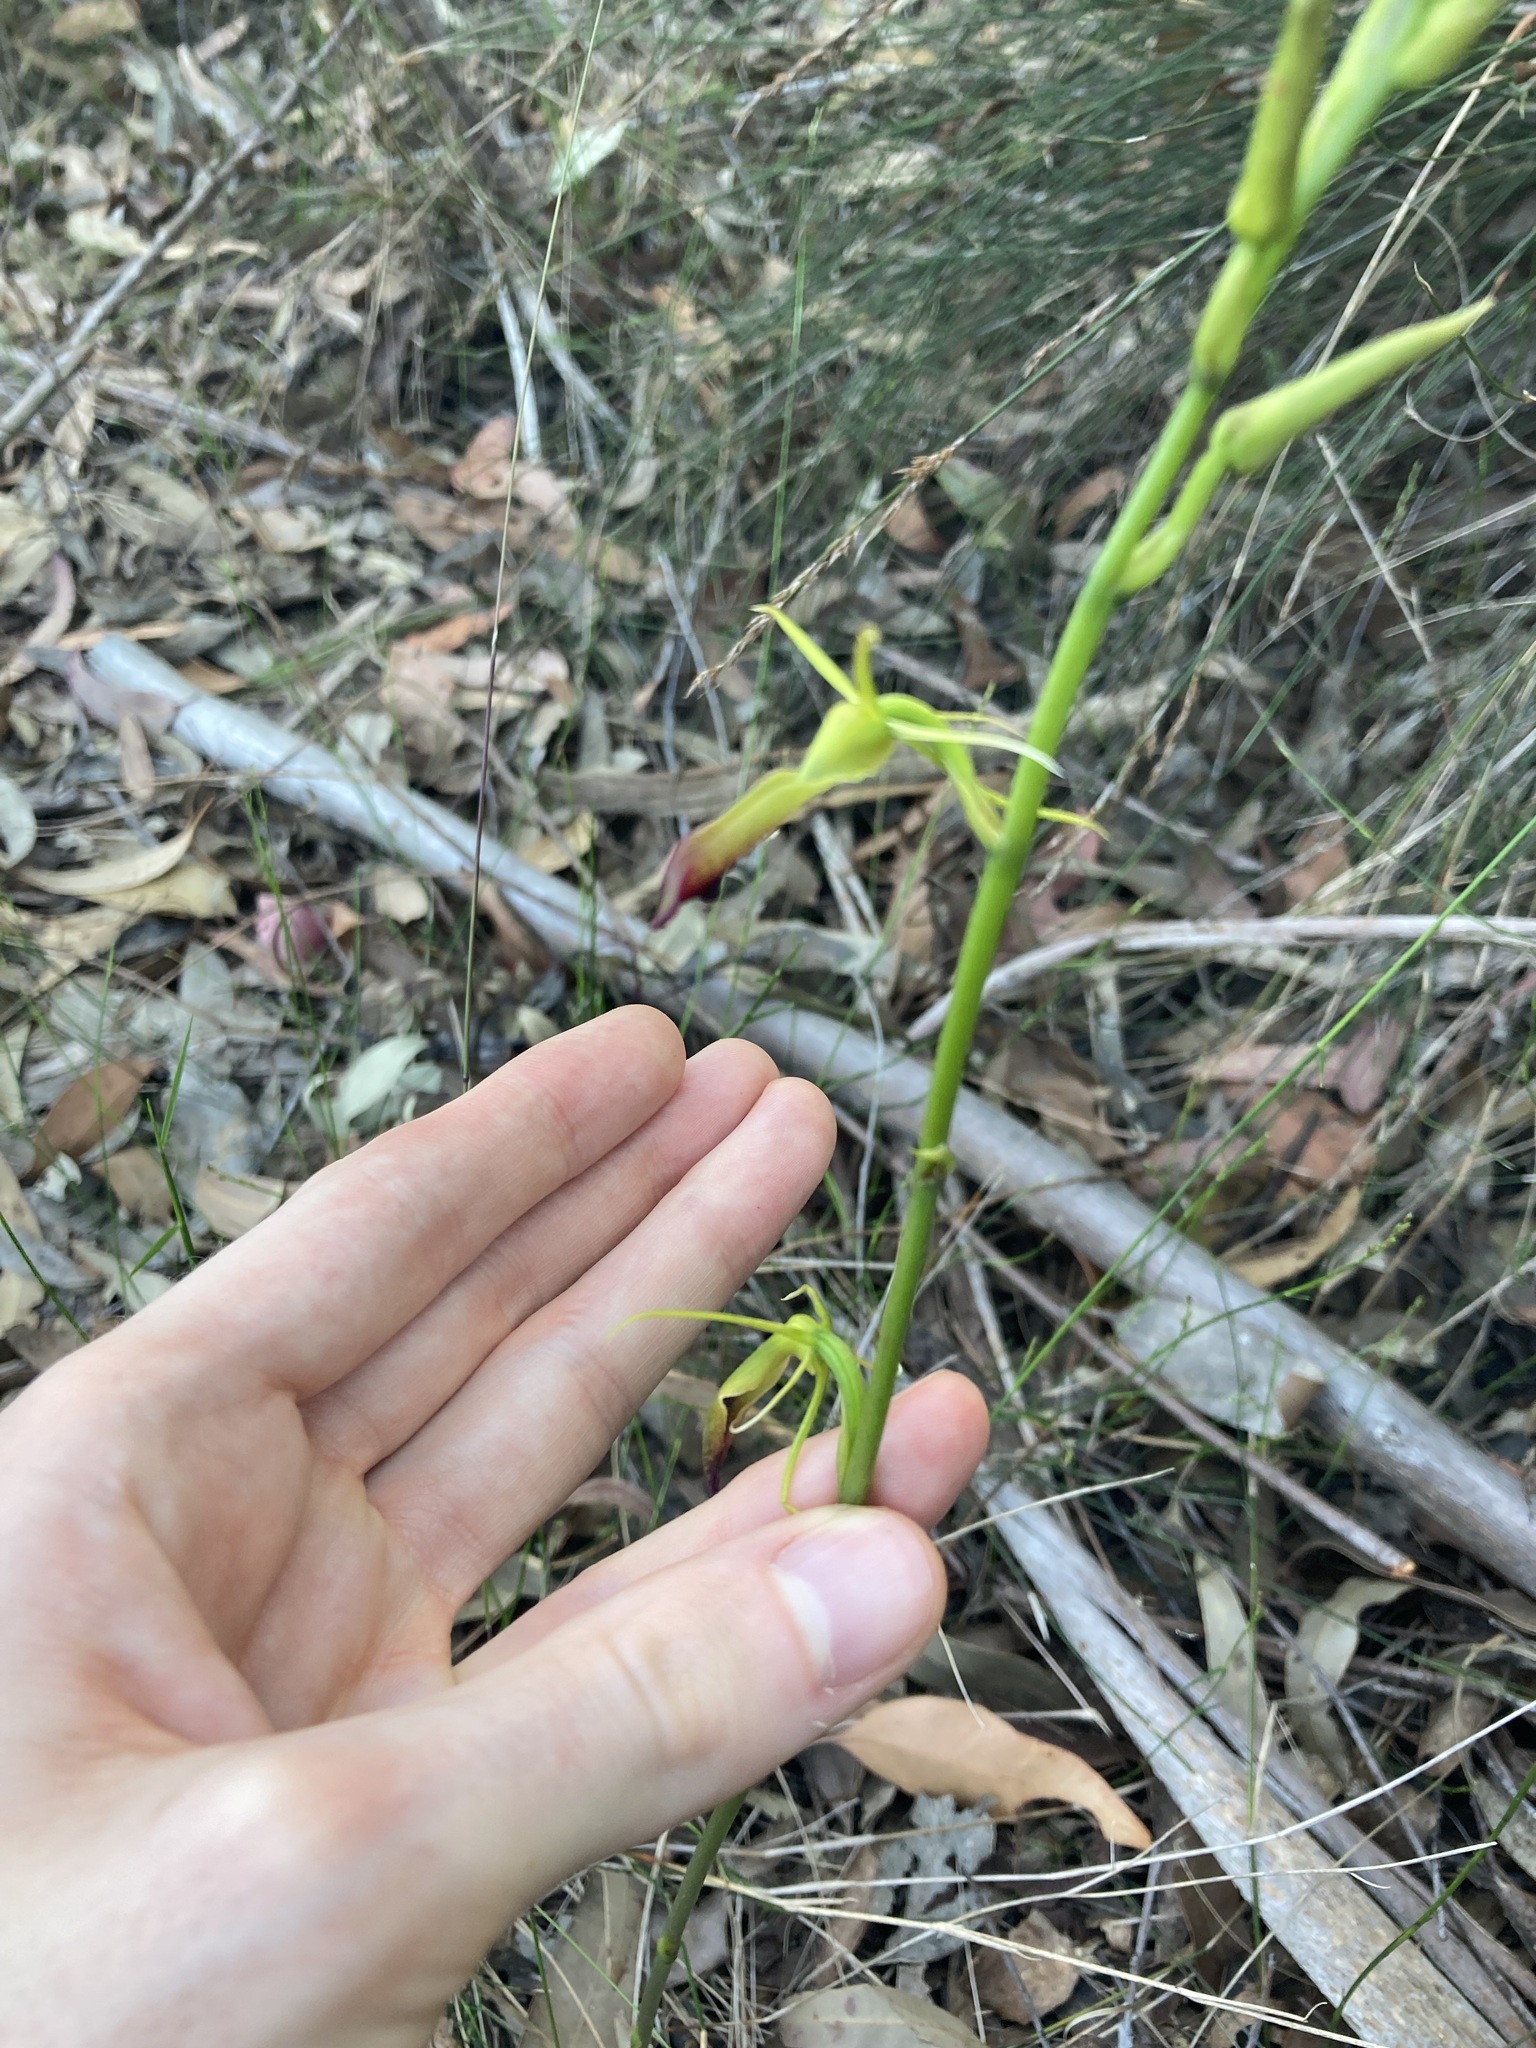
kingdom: Plantae
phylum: Tracheophyta
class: Liliopsida
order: Asparagales
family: Orchidaceae
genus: Cryptostylis
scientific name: Cryptostylis subulata
